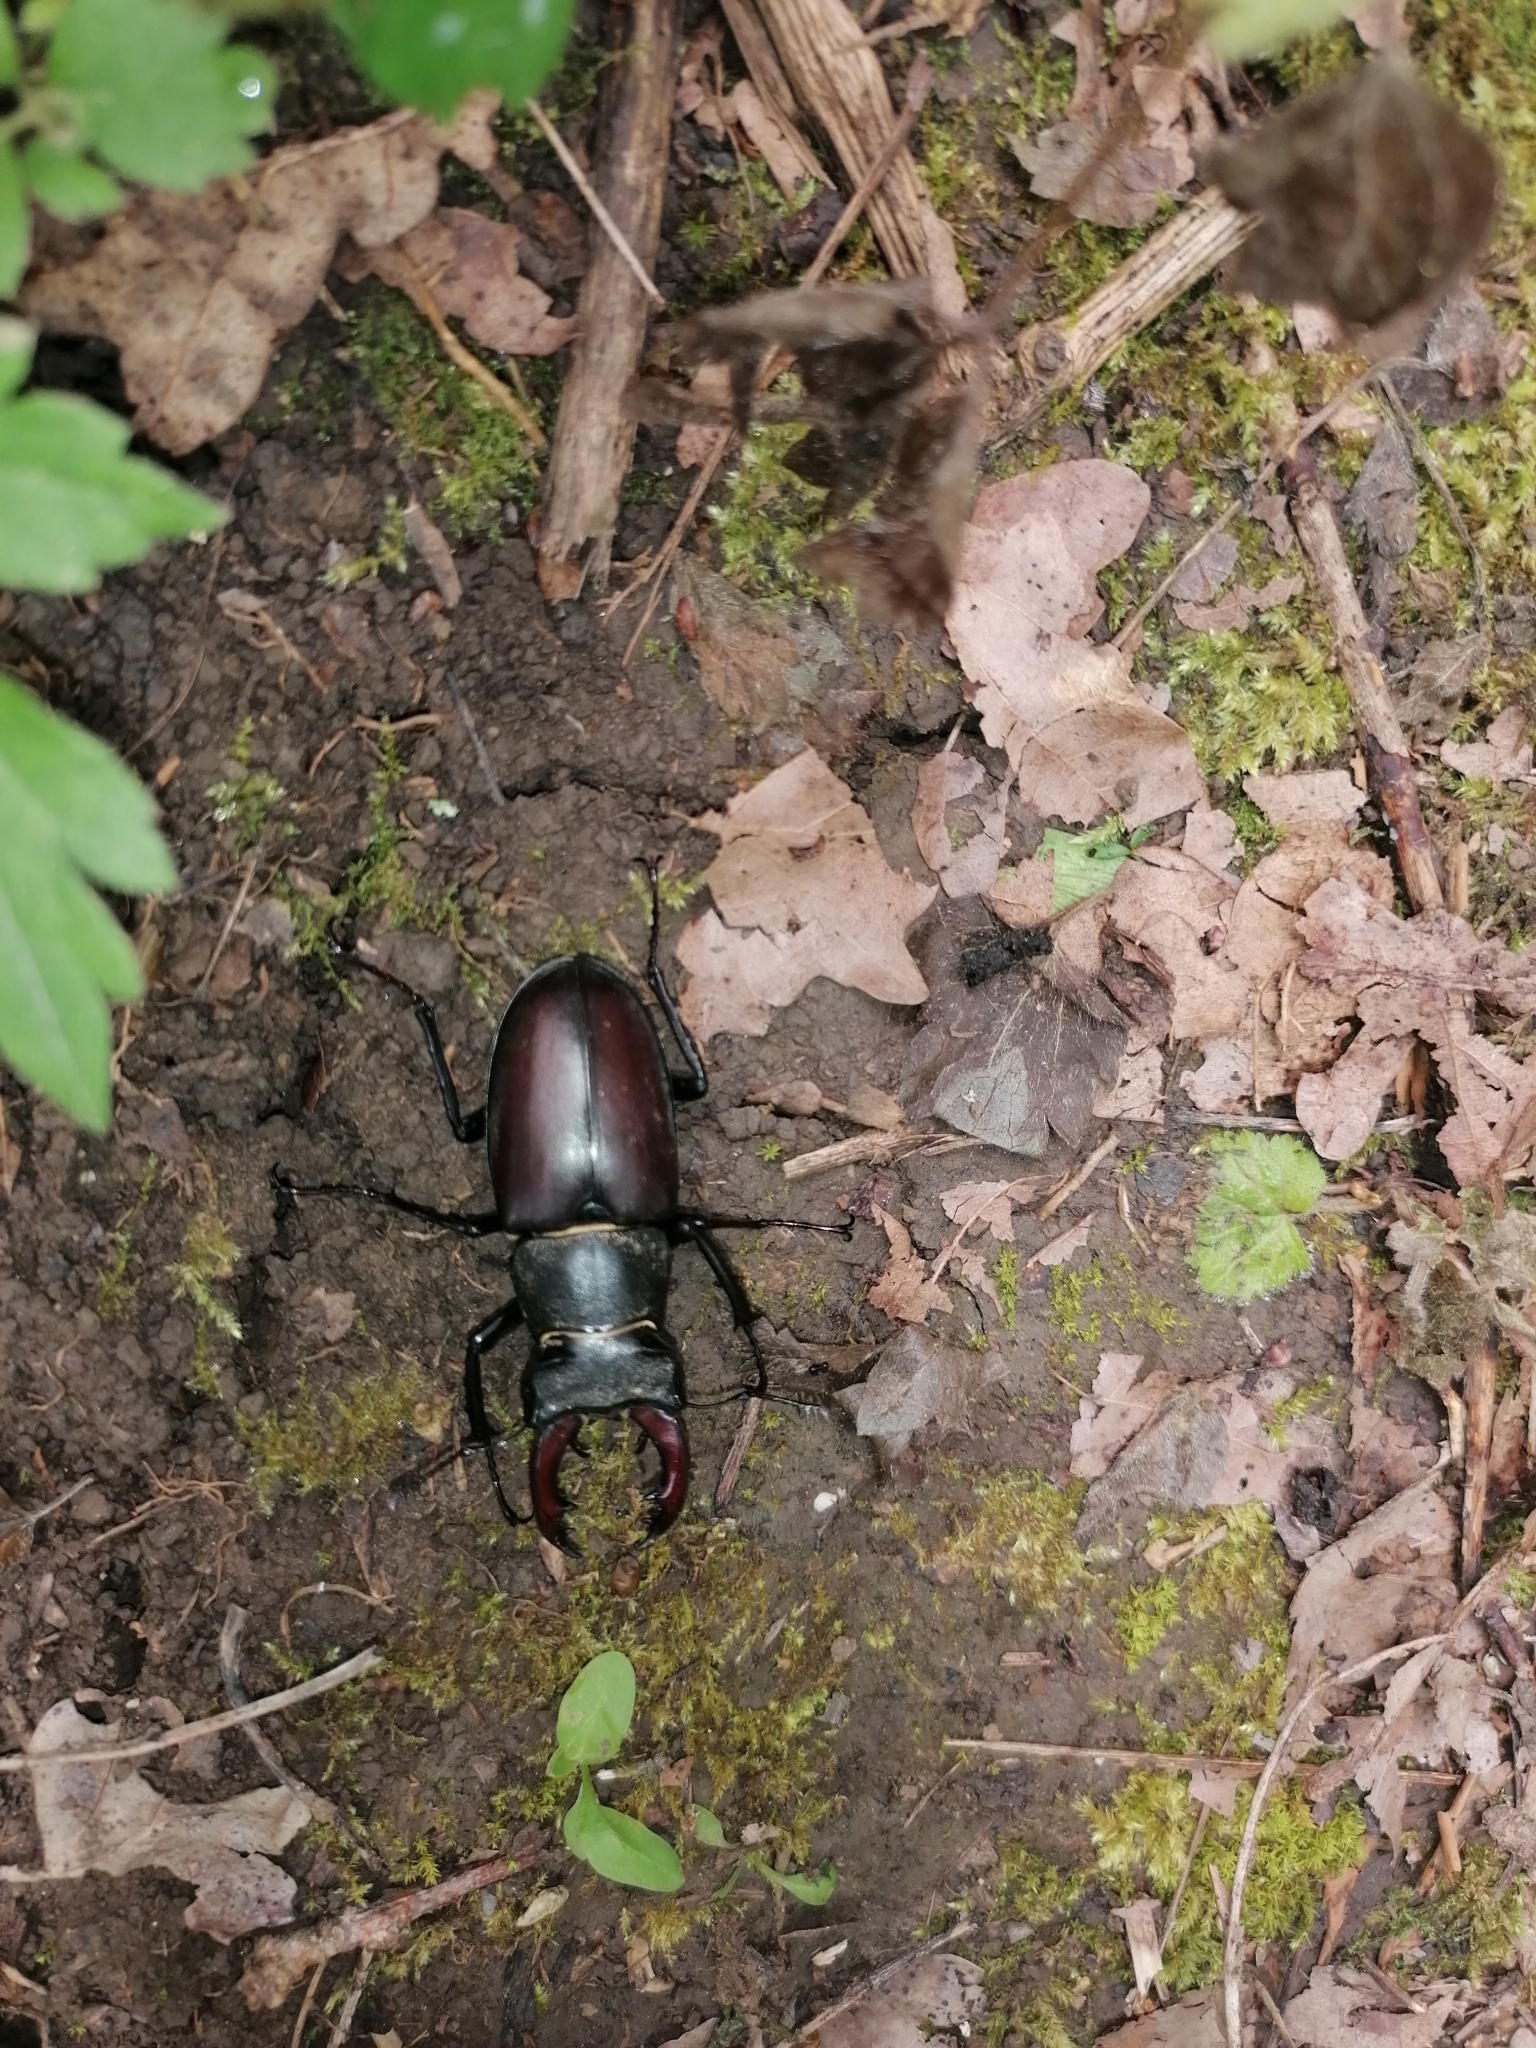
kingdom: Animalia
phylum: Arthropoda
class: Insecta
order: Coleoptera
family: Lucanidae
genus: Lucanus
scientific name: Lucanus cervus
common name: Stag beetle
